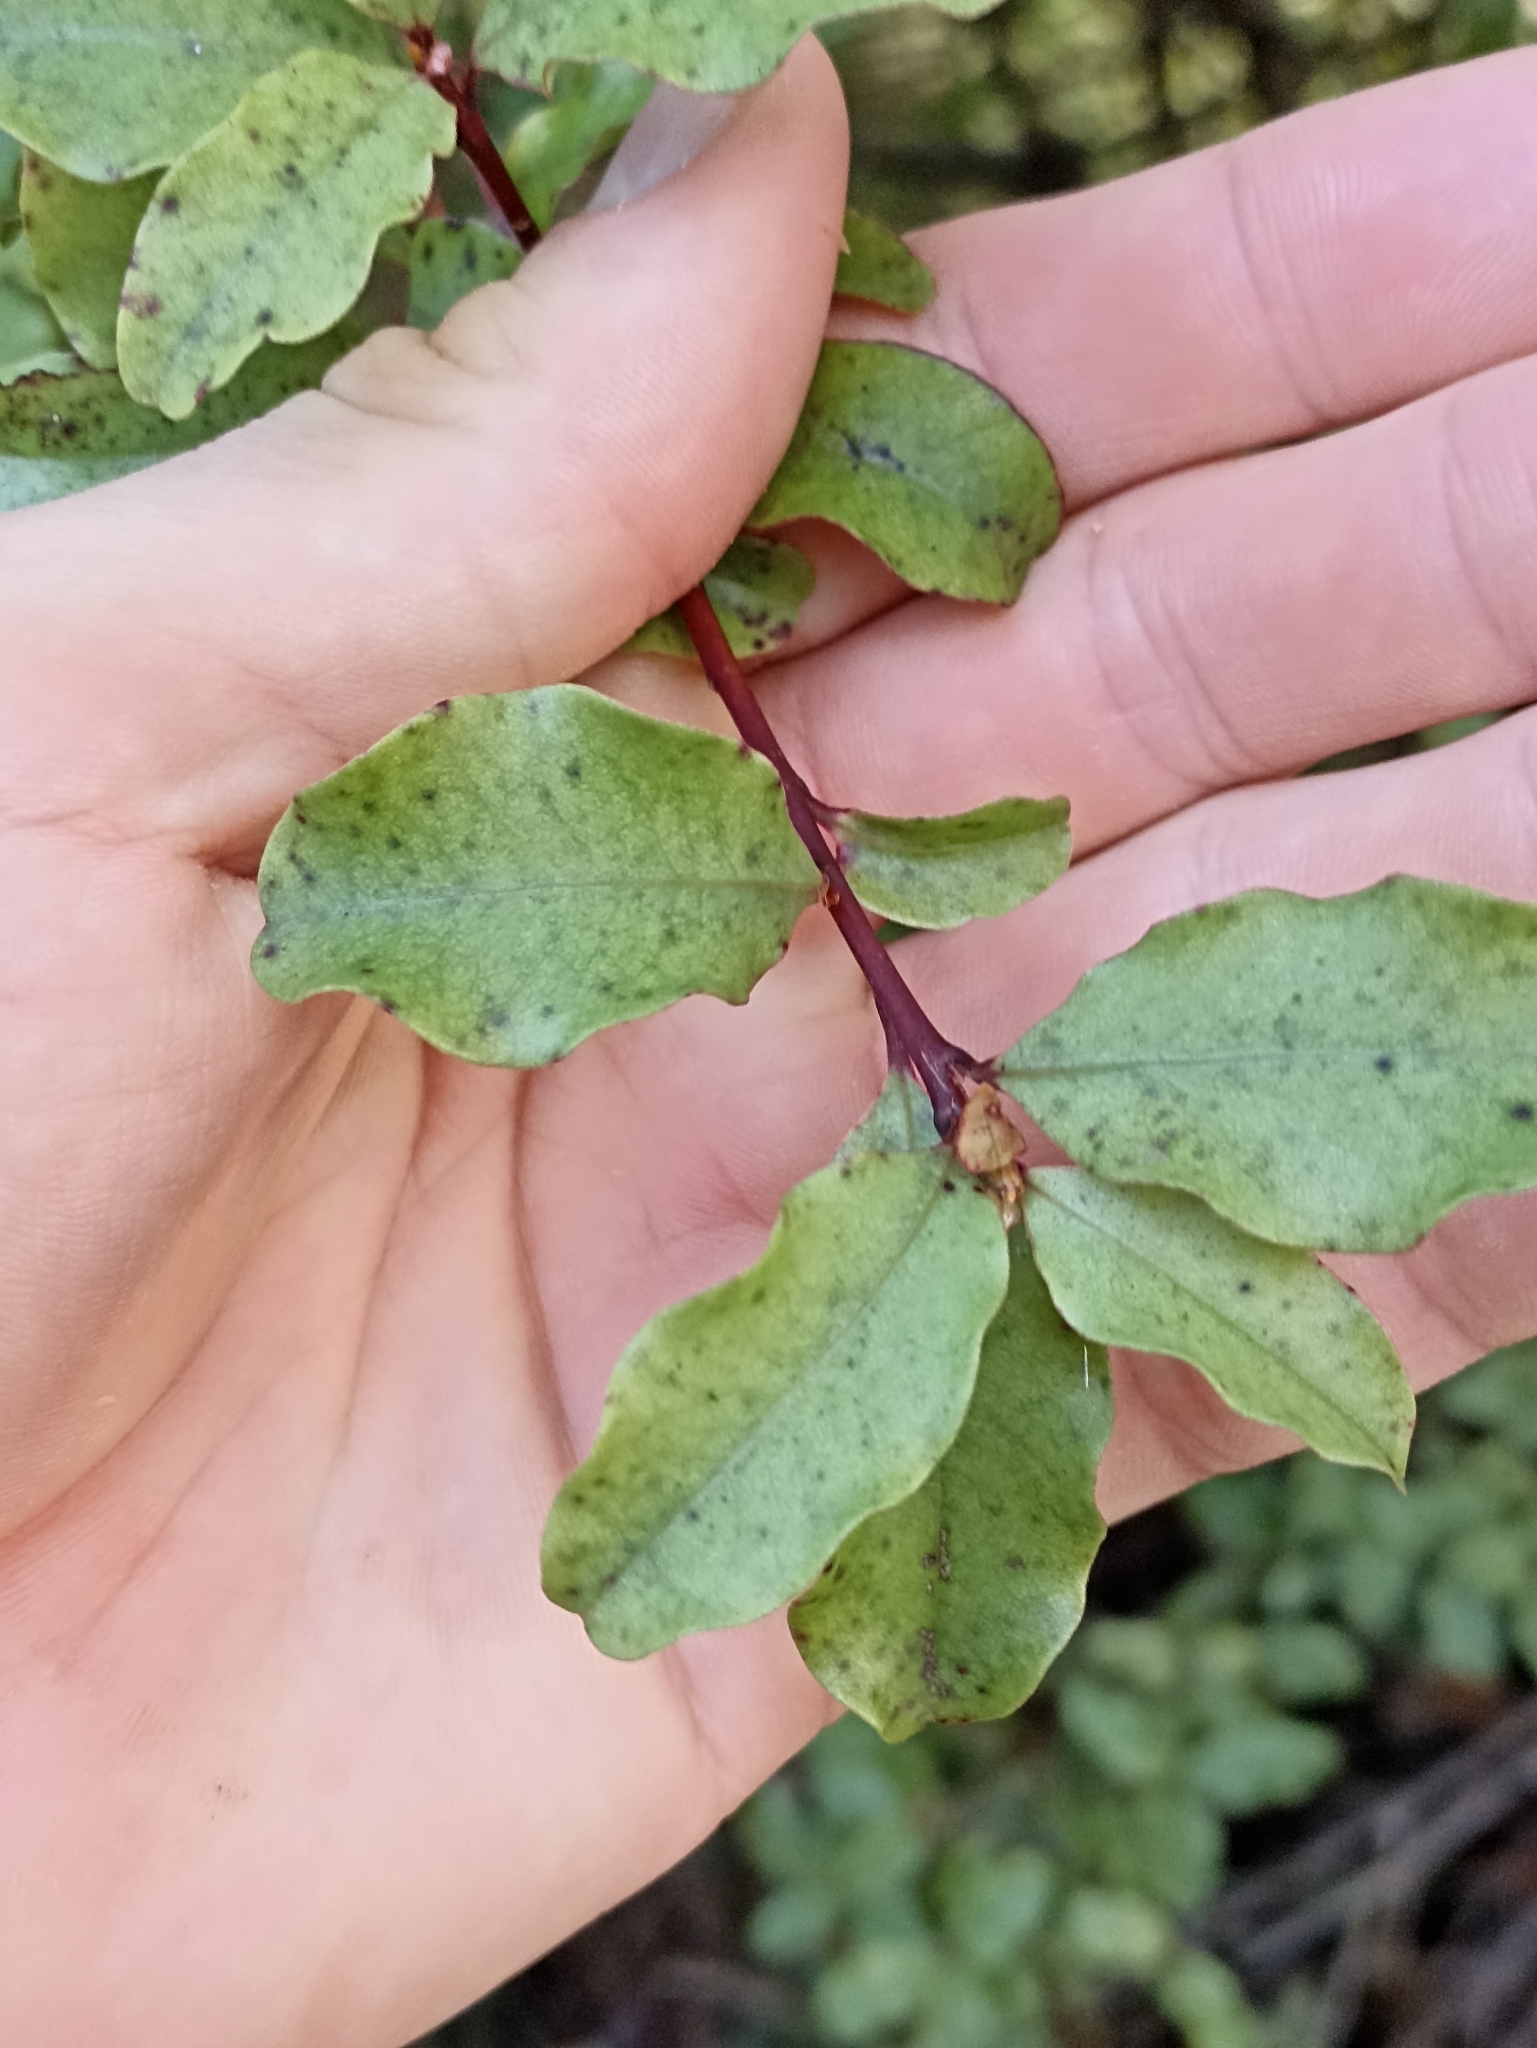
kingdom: Plantae
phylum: Tracheophyta
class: Magnoliopsida
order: Ericales
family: Primulaceae
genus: Myrsine
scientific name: Myrsine australis
